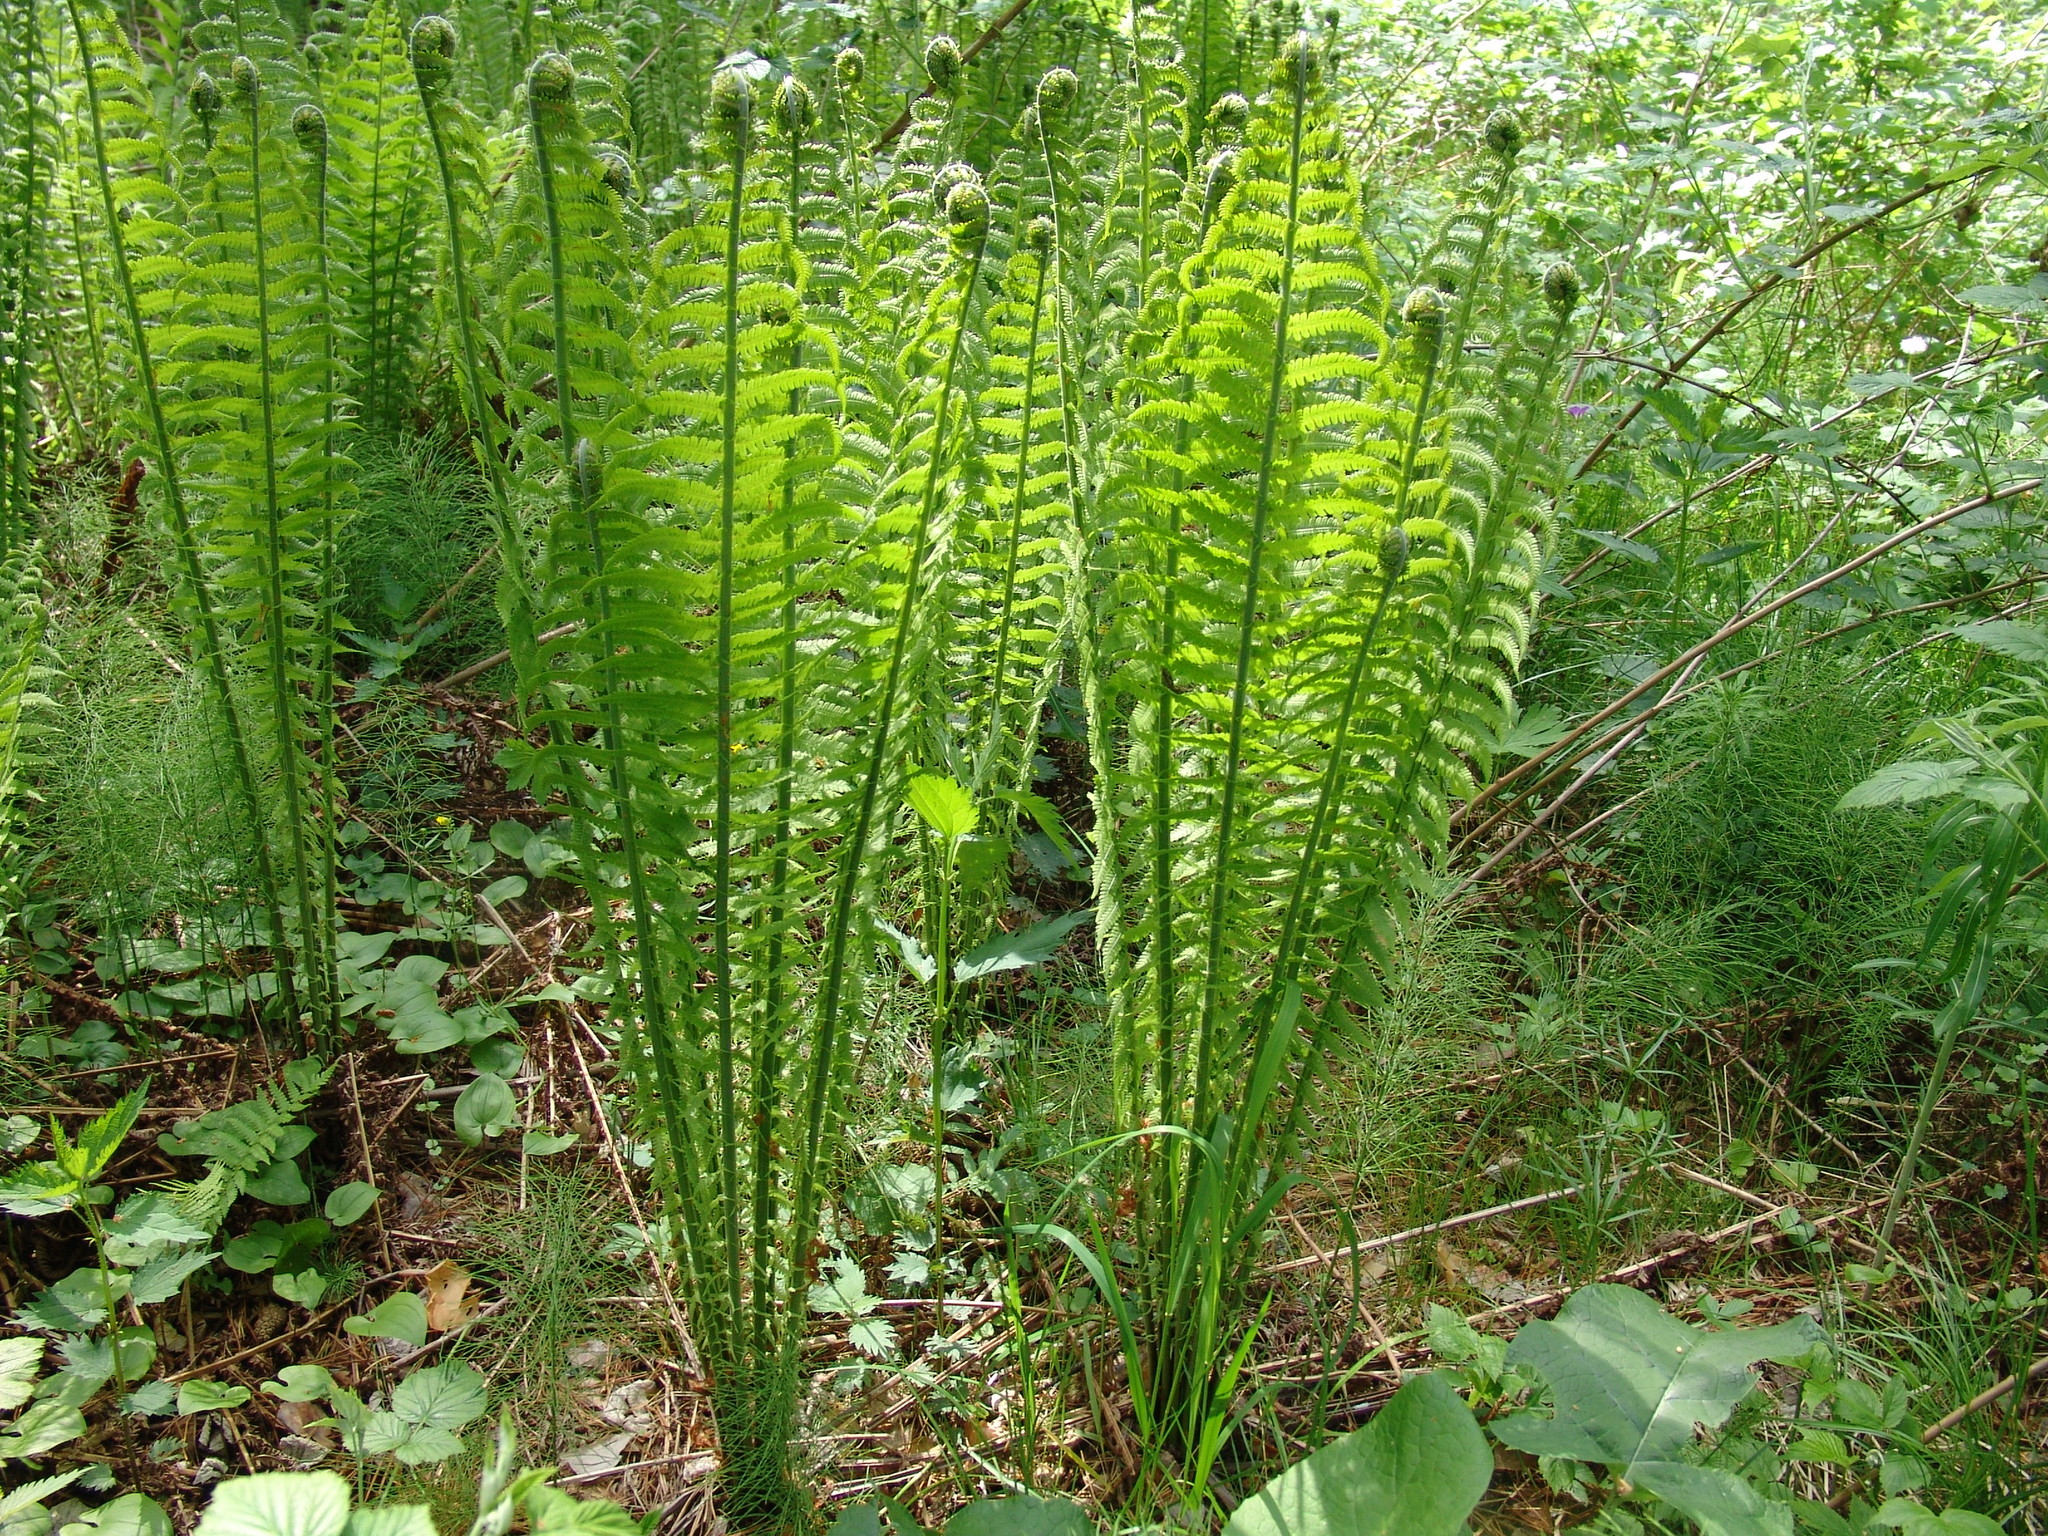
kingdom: Plantae
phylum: Tracheophyta
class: Polypodiopsida
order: Polypodiales
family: Onocleaceae
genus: Matteuccia
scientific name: Matteuccia struthiopteris
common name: Ostrich fern
